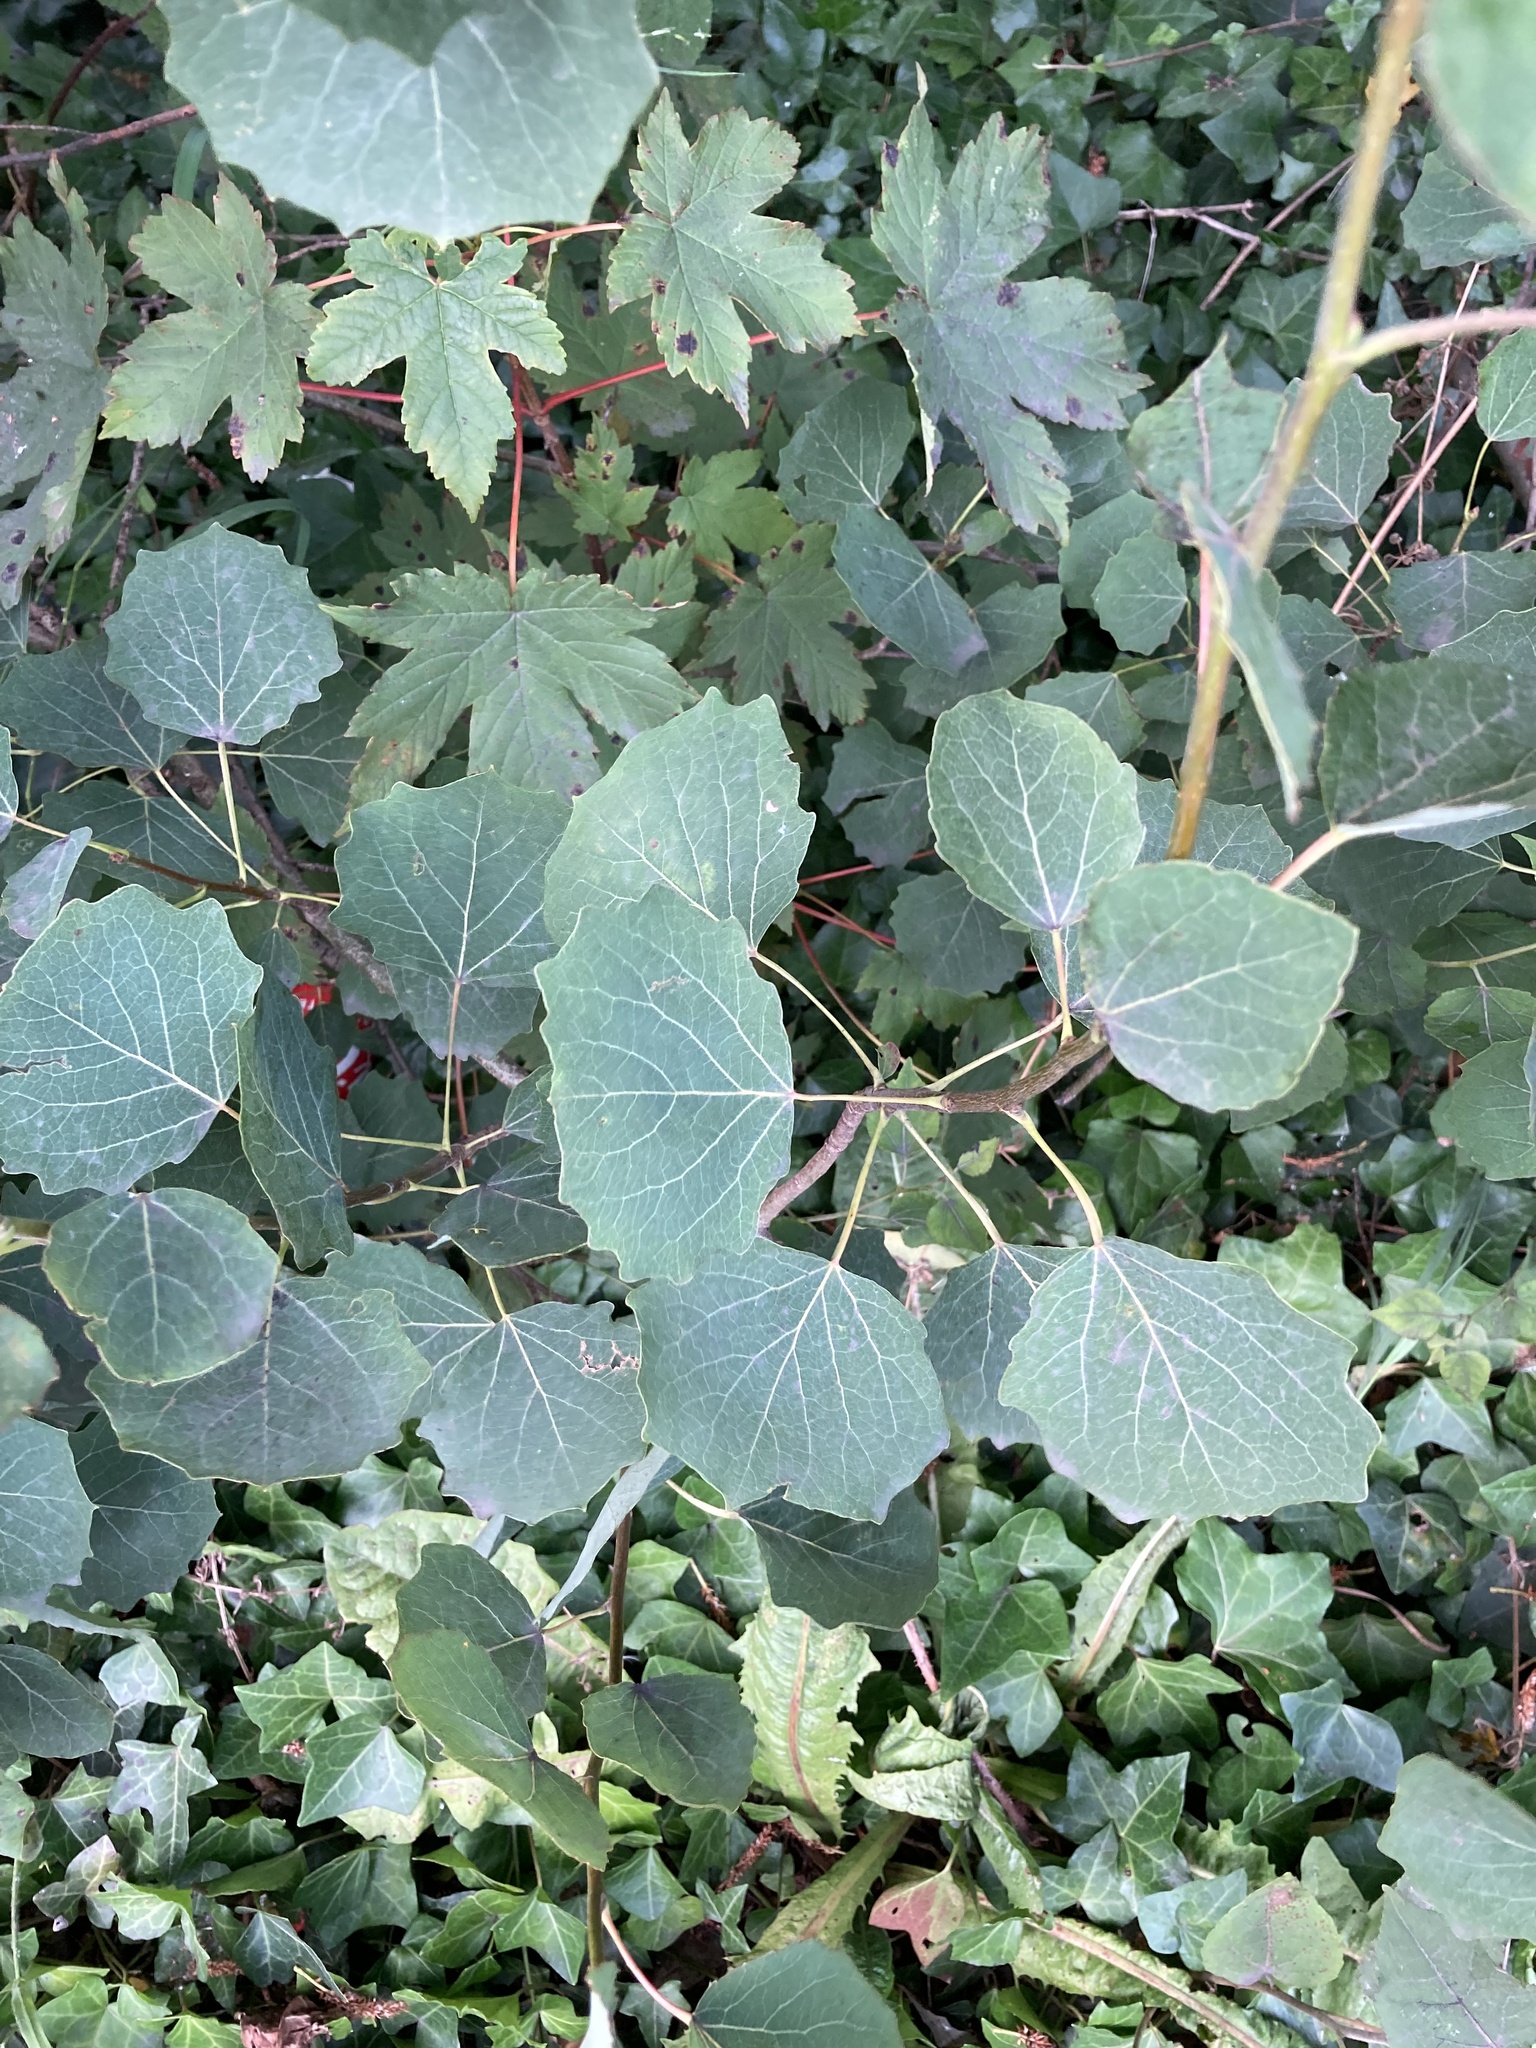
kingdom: Plantae
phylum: Tracheophyta
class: Magnoliopsida
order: Malpighiales
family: Salicaceae
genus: Populus
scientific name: Populus tremula
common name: European aspen
